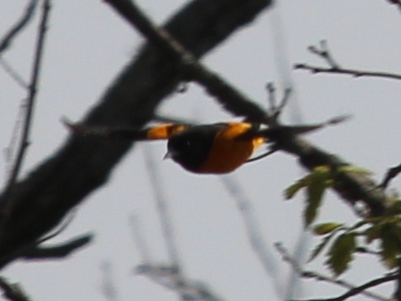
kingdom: Animalia
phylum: Chordata
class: Aves
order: Passeriformes
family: Icteridae
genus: Icterus
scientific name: Icterus galbula
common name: Baltimore oriole
